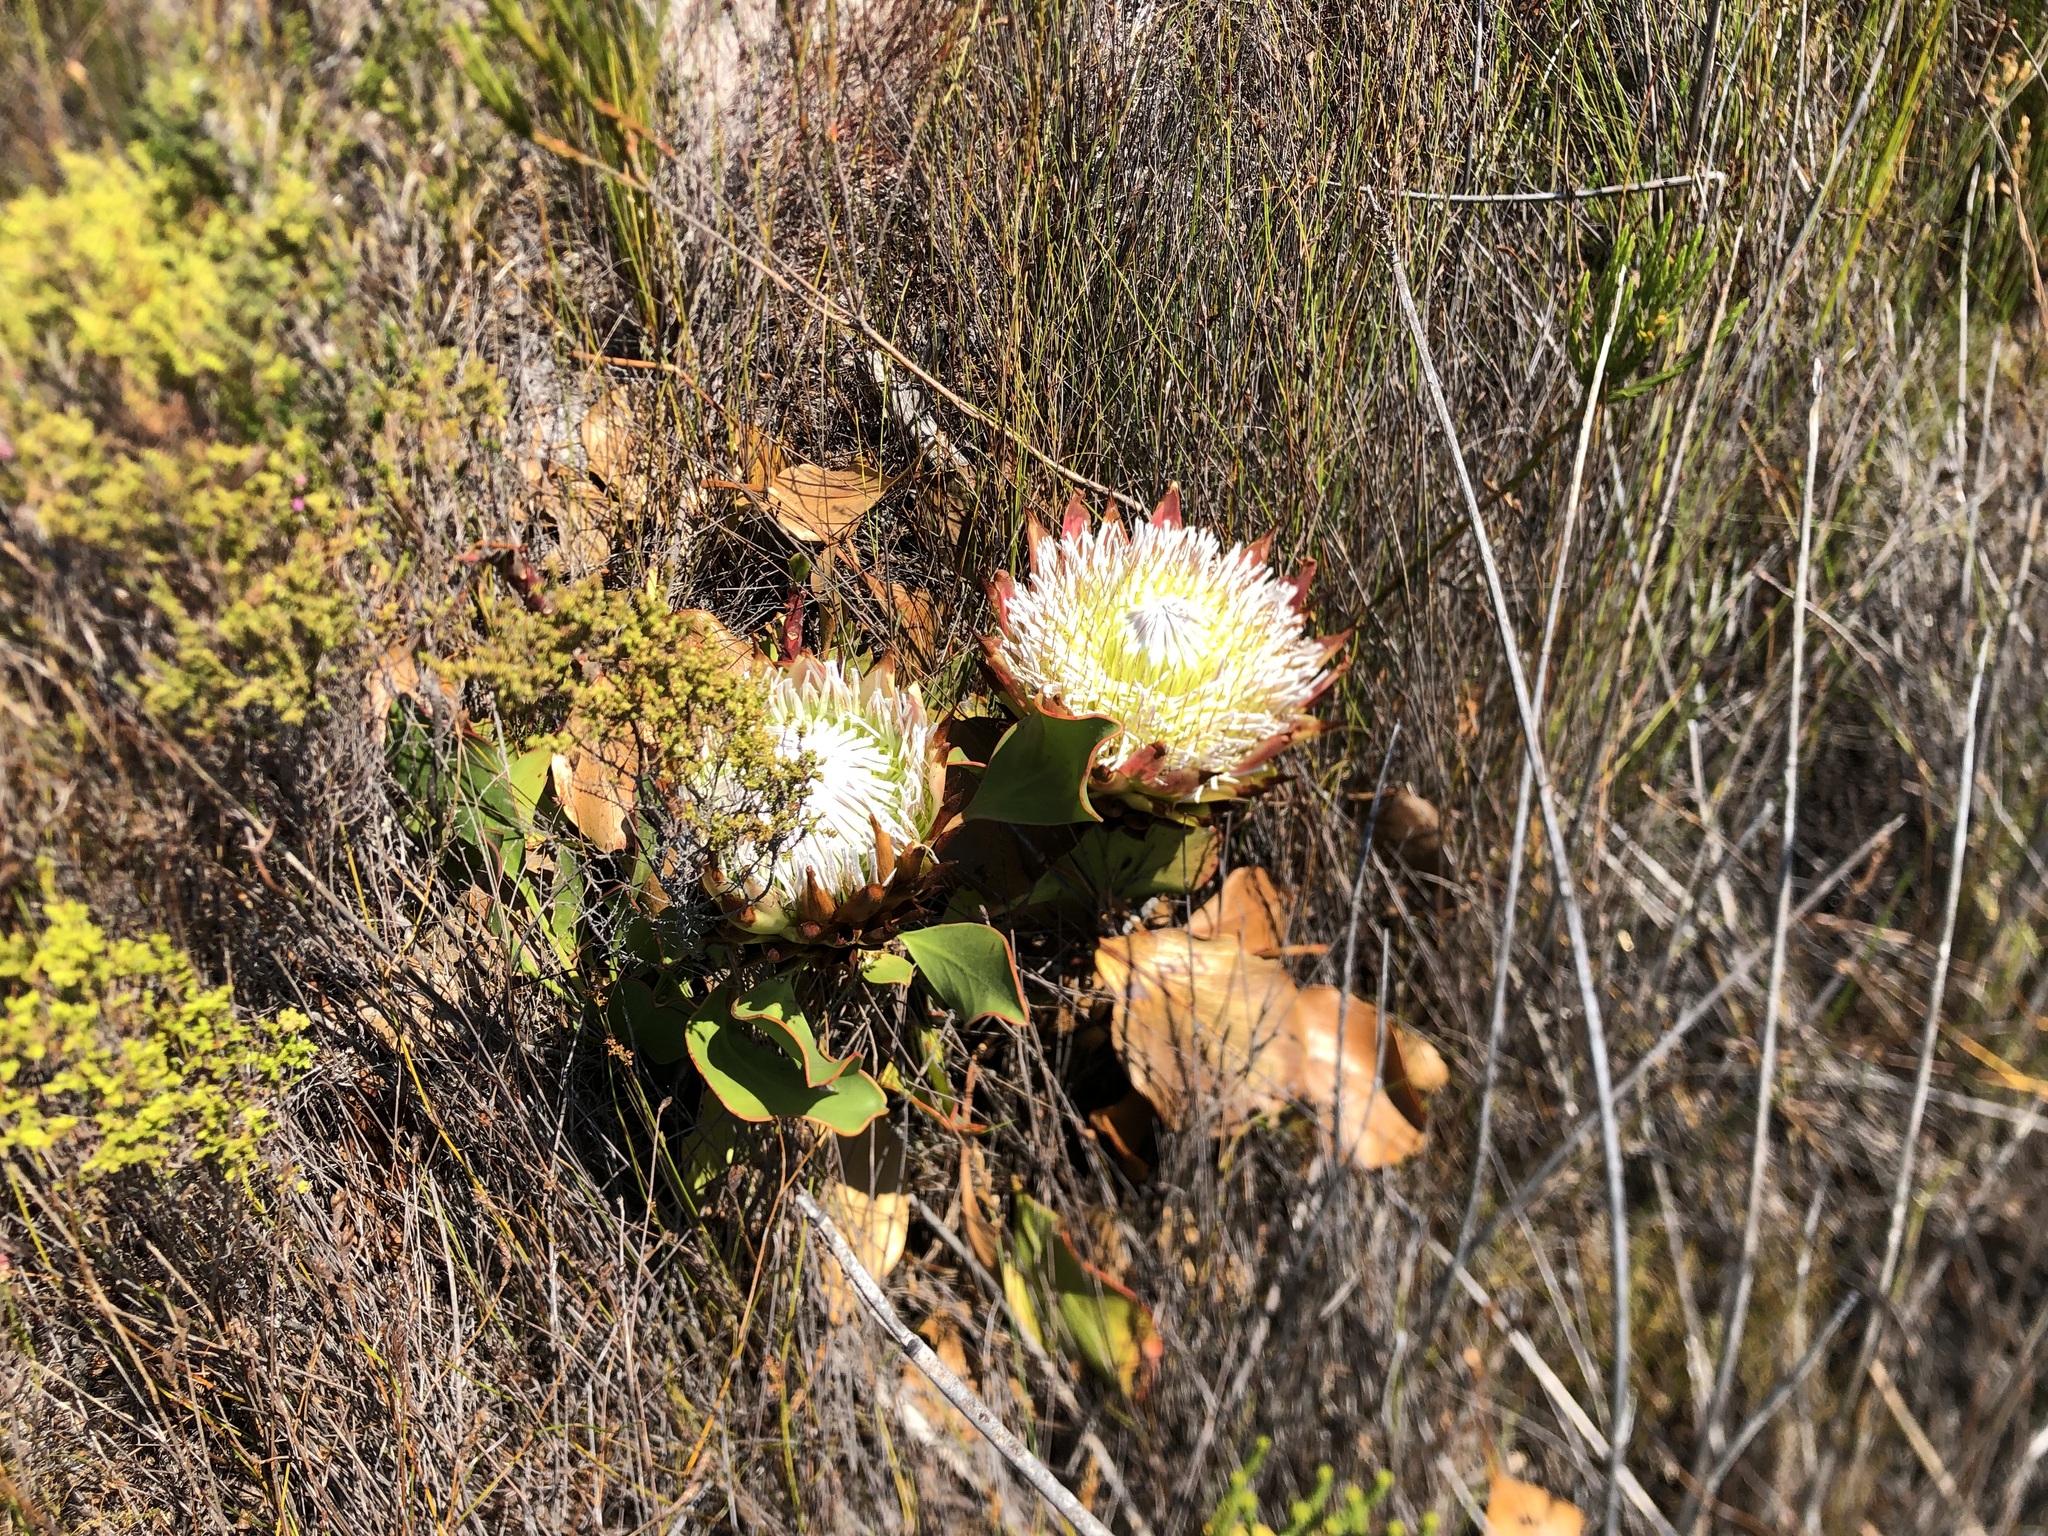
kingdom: Plantae
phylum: Tracheophyta
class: Magnoliopsida
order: Proteales
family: Proteaceae
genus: Protea
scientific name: Protea cynaroides
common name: King protea
